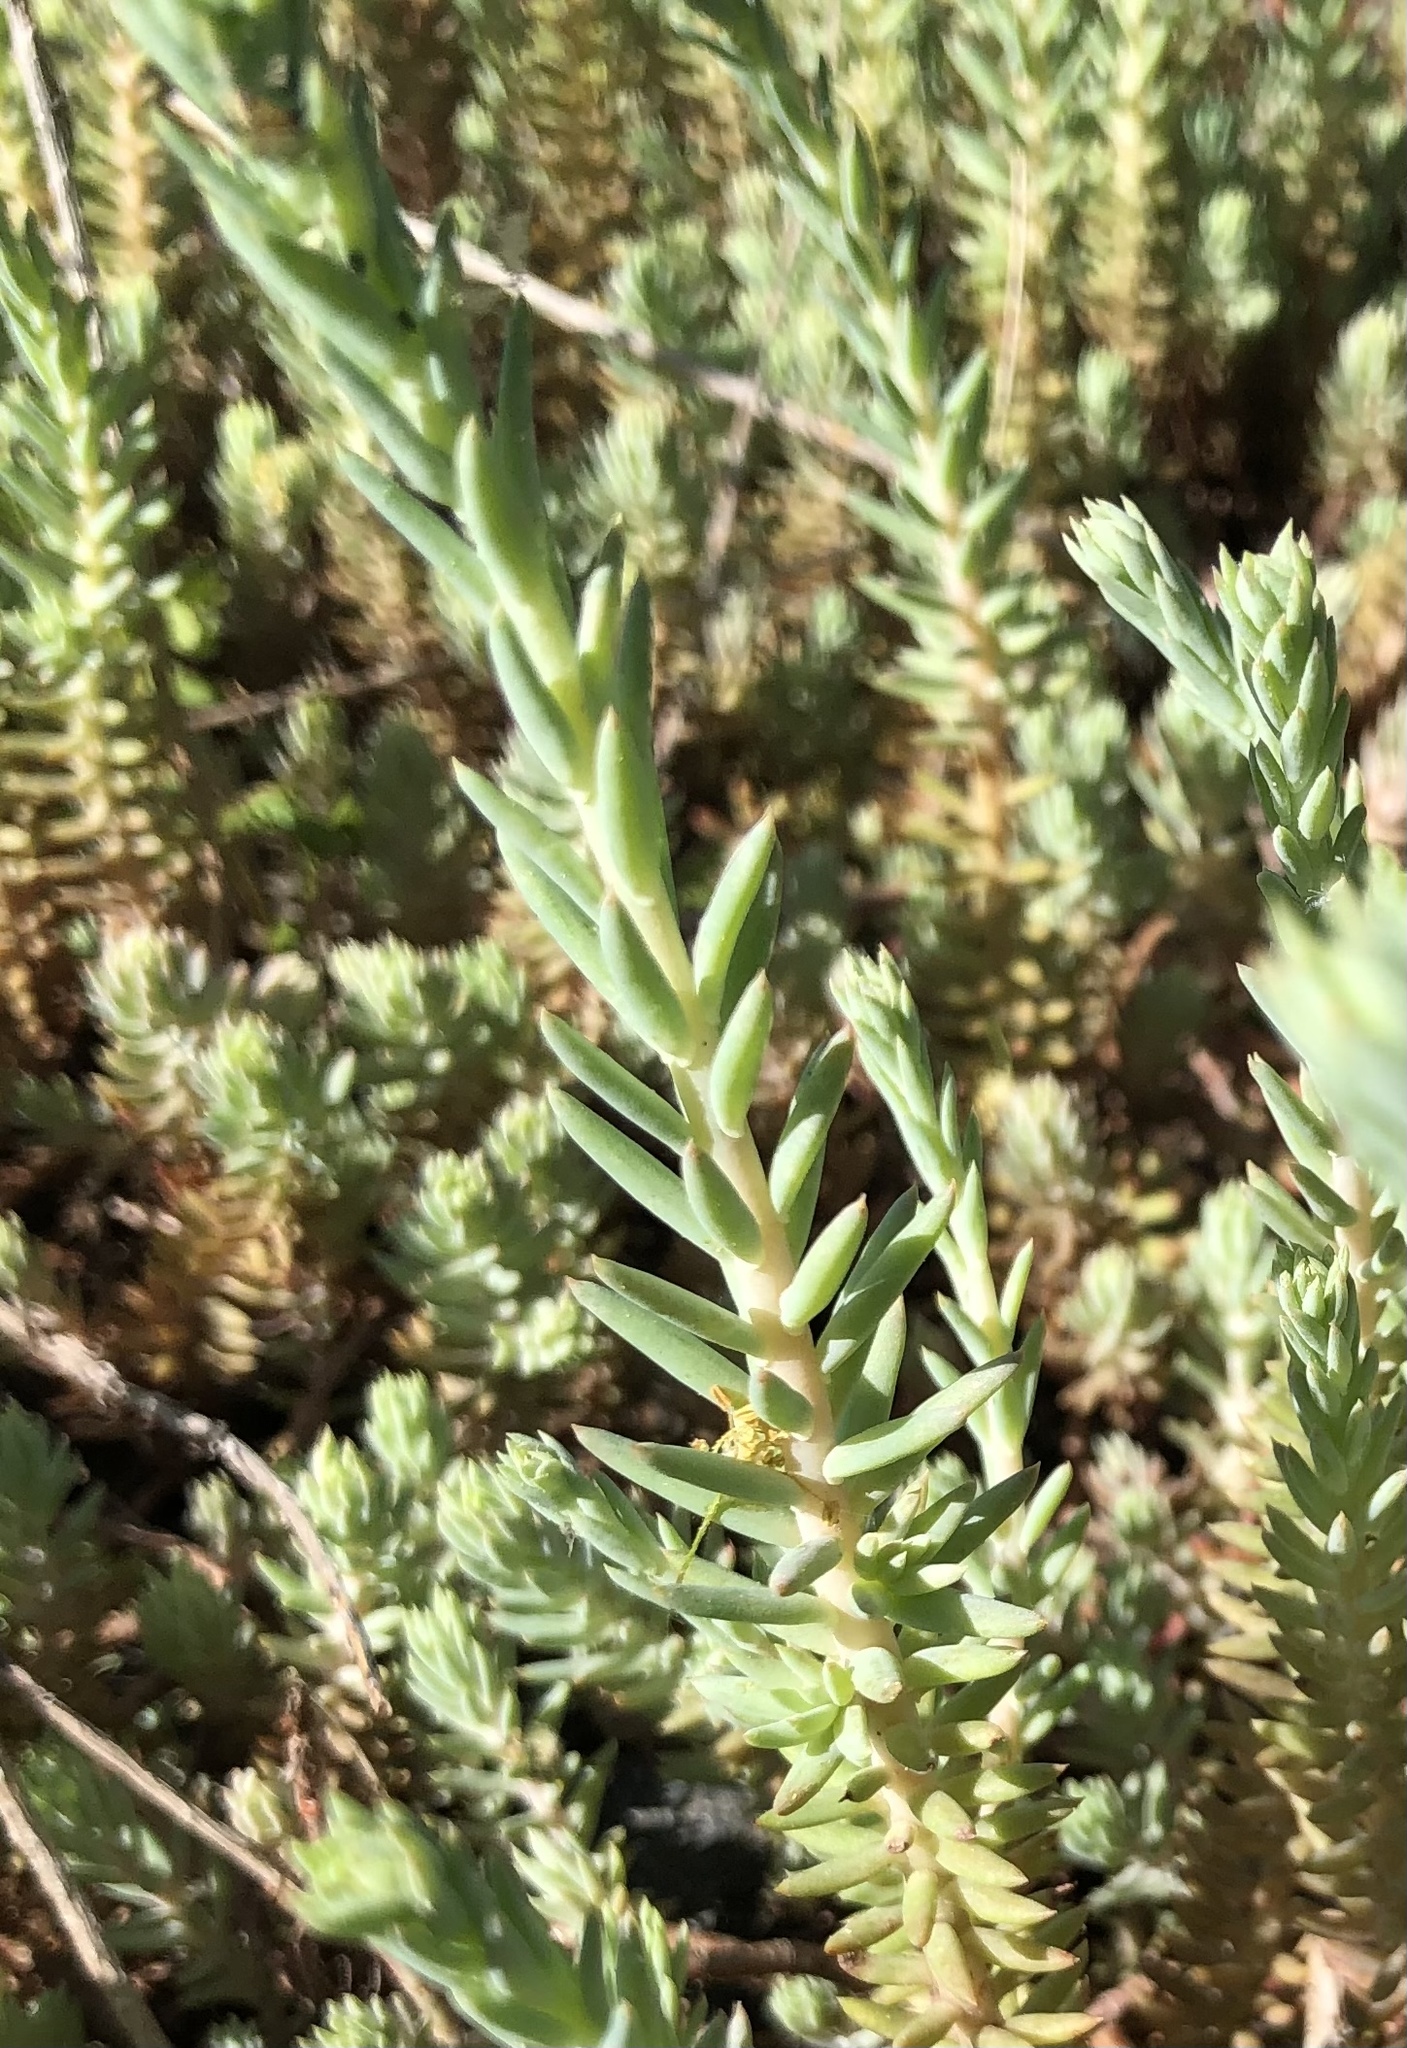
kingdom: Plantae
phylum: Tracheophyta
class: Magnoliopsida
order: Saxifragales
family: Crassulaceae
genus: Petrosedum
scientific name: Petrosedum orientale
